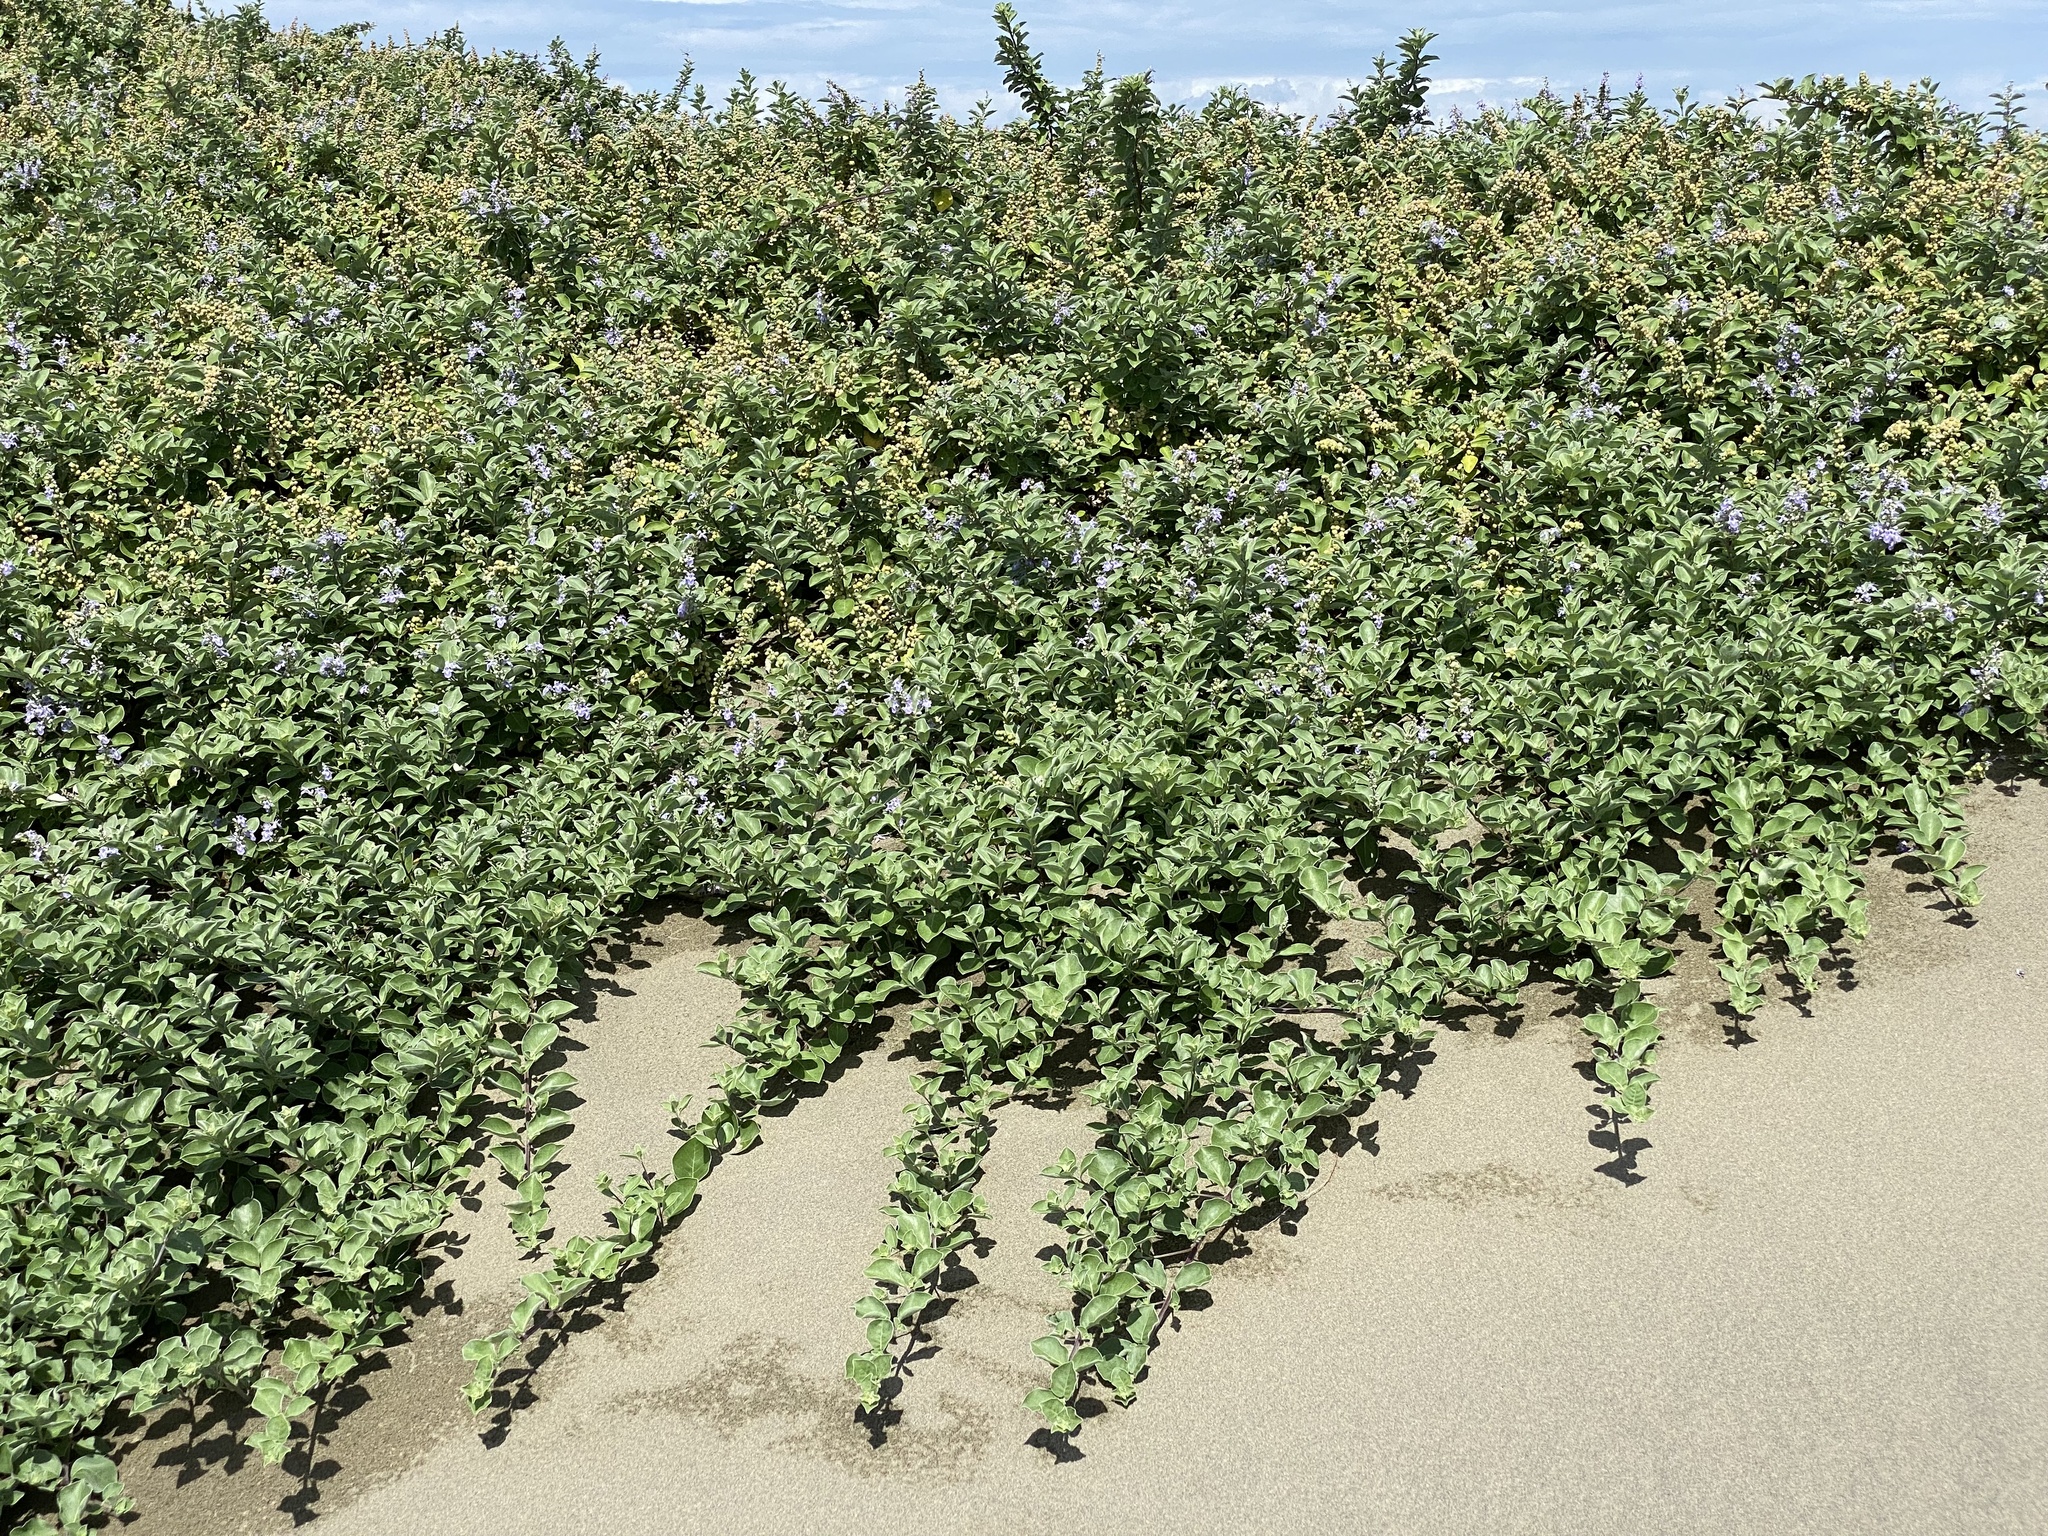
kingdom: Plantae
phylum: Tracheophyta
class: Magnoliopsida
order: Lamiales
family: Lamiaceae
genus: Vitex
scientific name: Vitex rotundifolia
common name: Beach vitex
